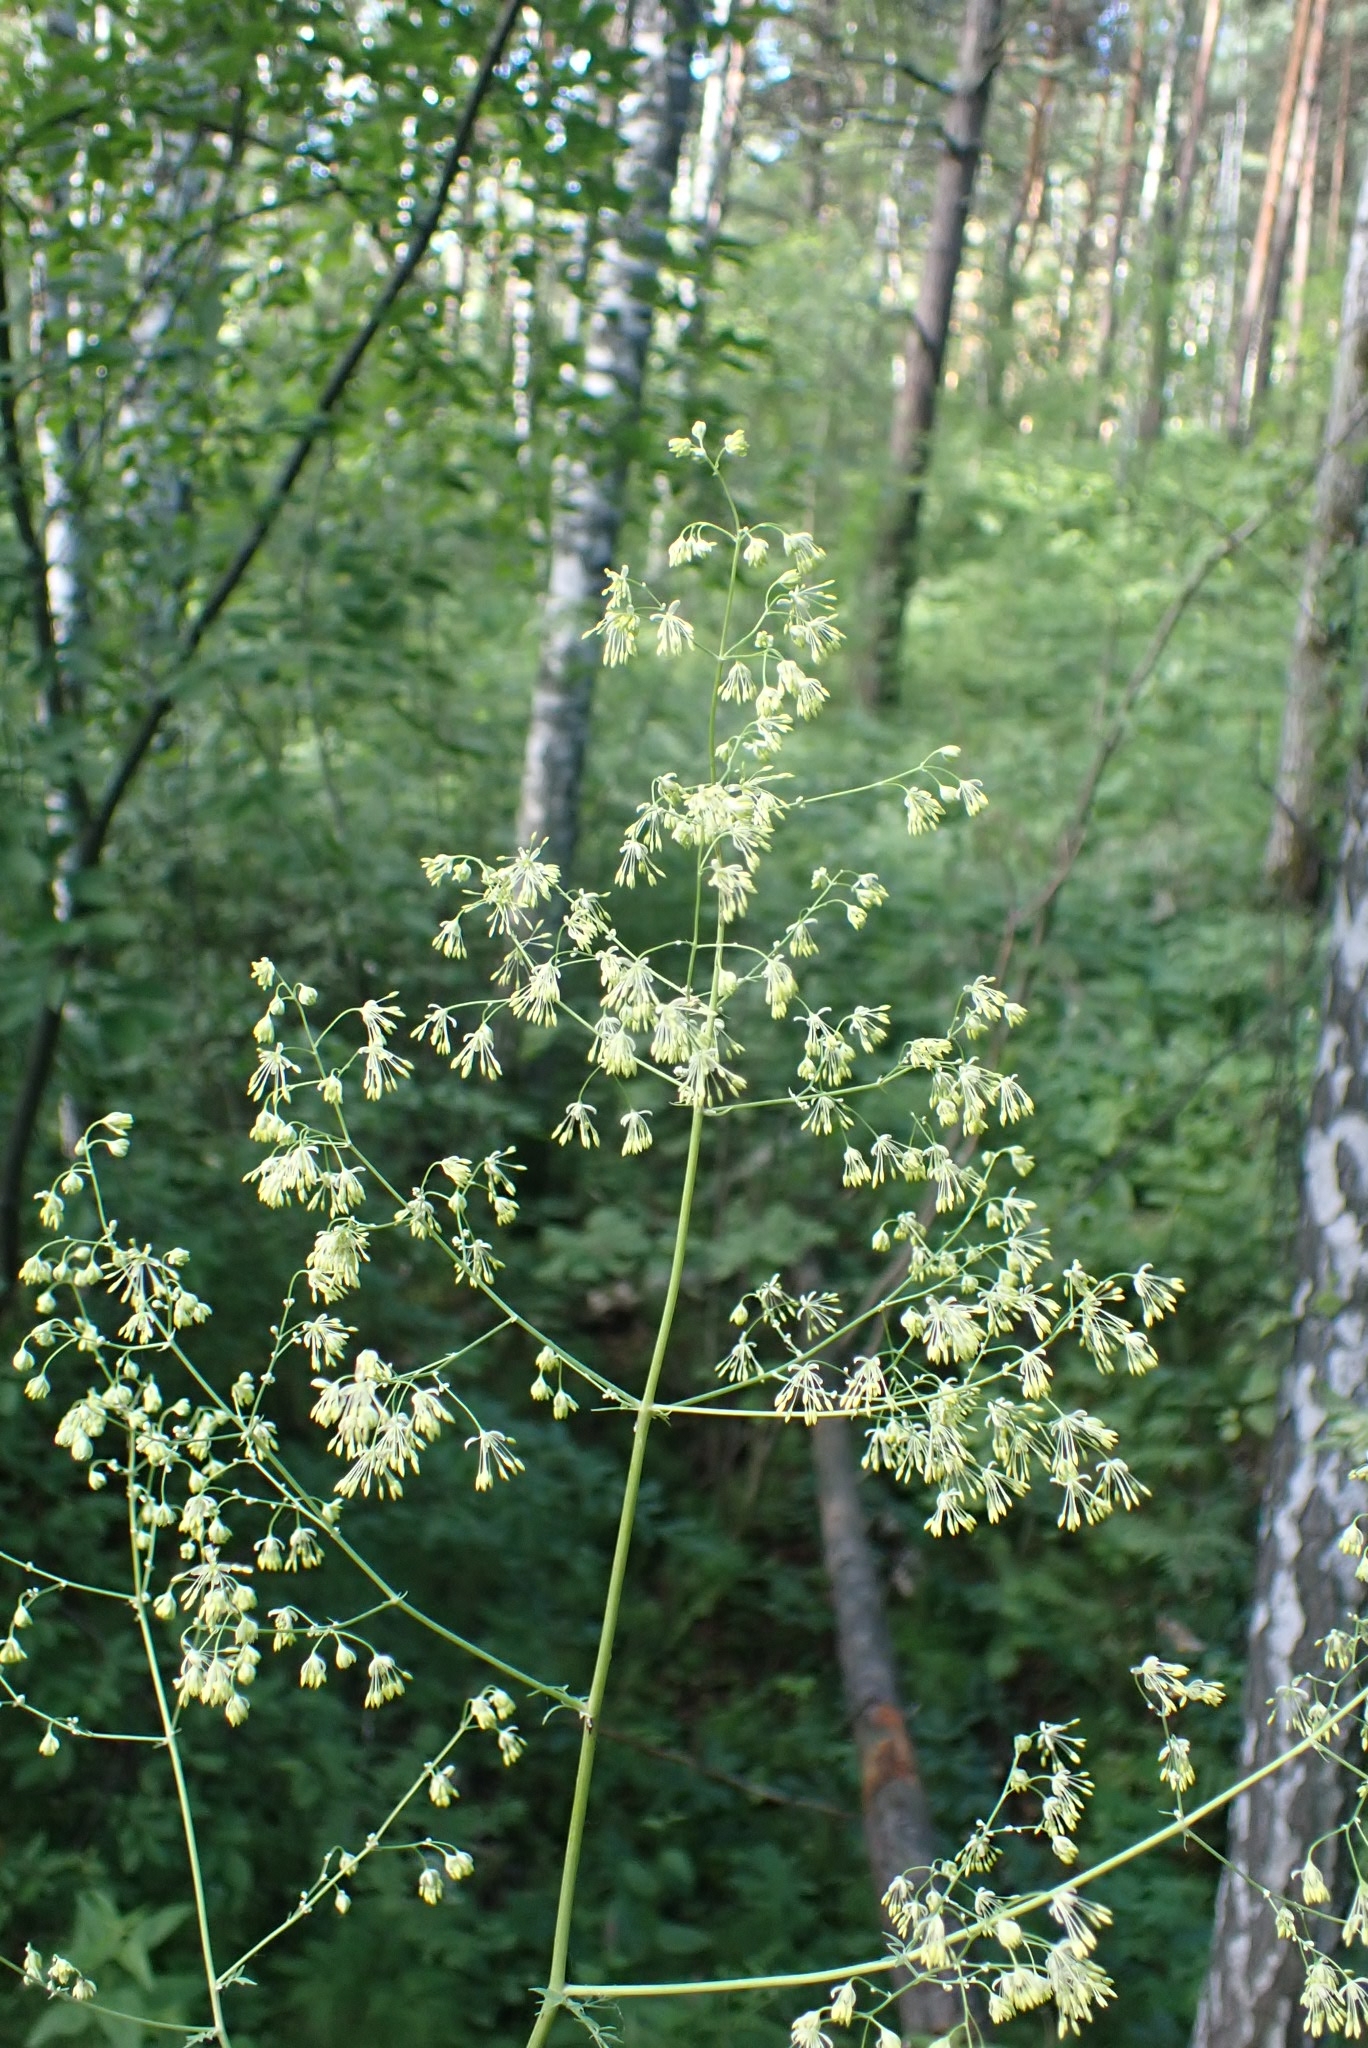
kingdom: Plantae
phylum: Tracheophyta
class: Magnoliopsida
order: Ranunculales
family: Ranunculaceae
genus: Thalictrum
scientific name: Thalictrum minus
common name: Lesser meadow-rue
